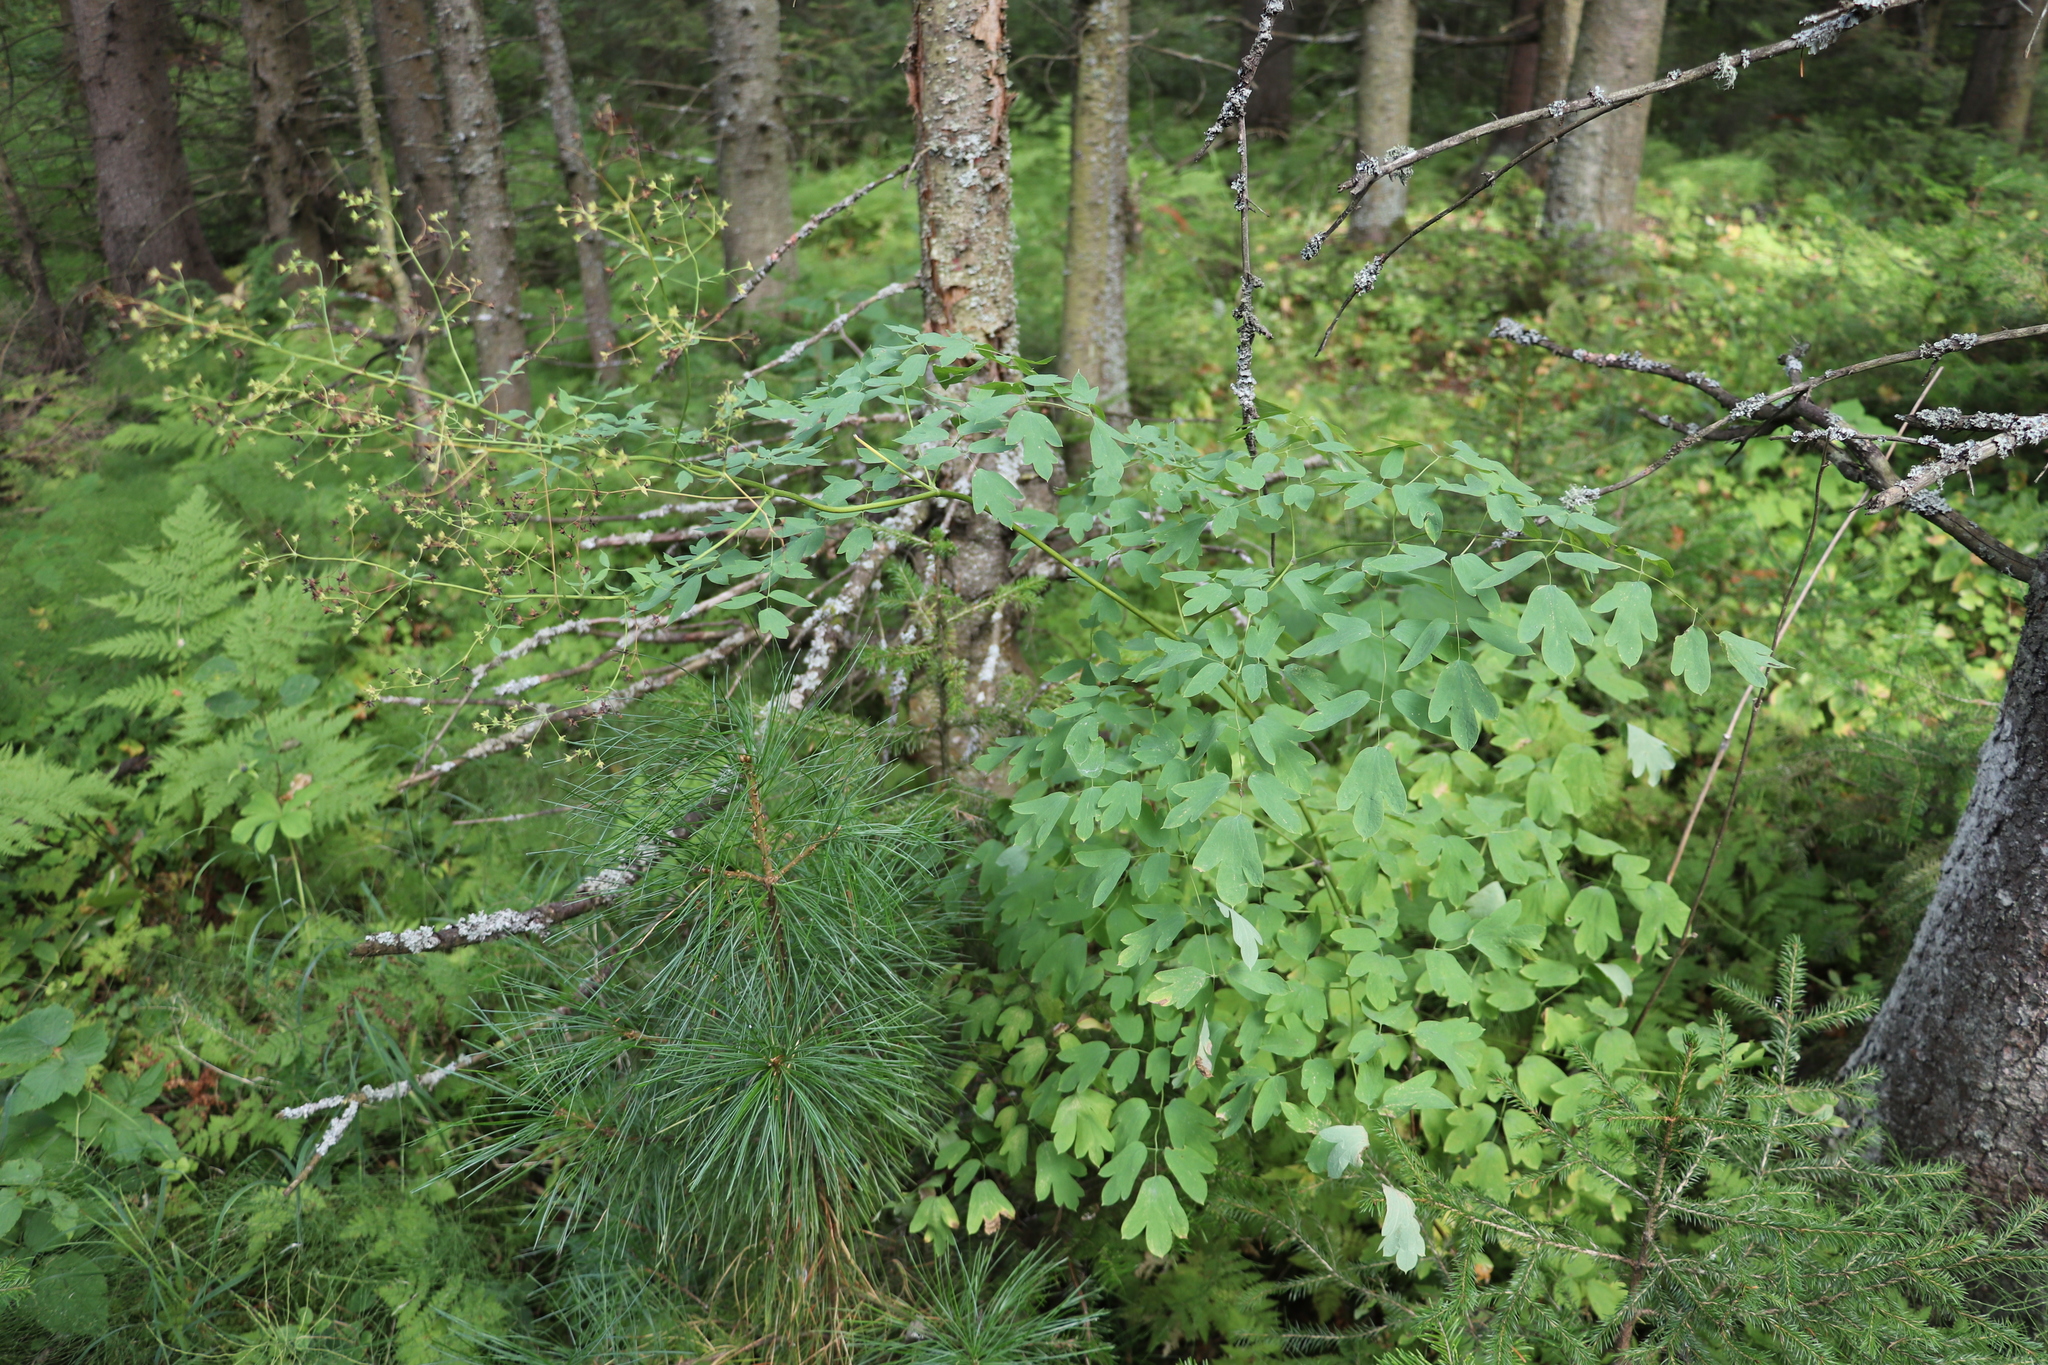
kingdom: Plantae
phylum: Tracheophyta
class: Magnoliopsida
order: Ranunculales
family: Ranunculaceae
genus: Thalictrum
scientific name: Thalictrum minus
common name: Lesser meadow-rue
